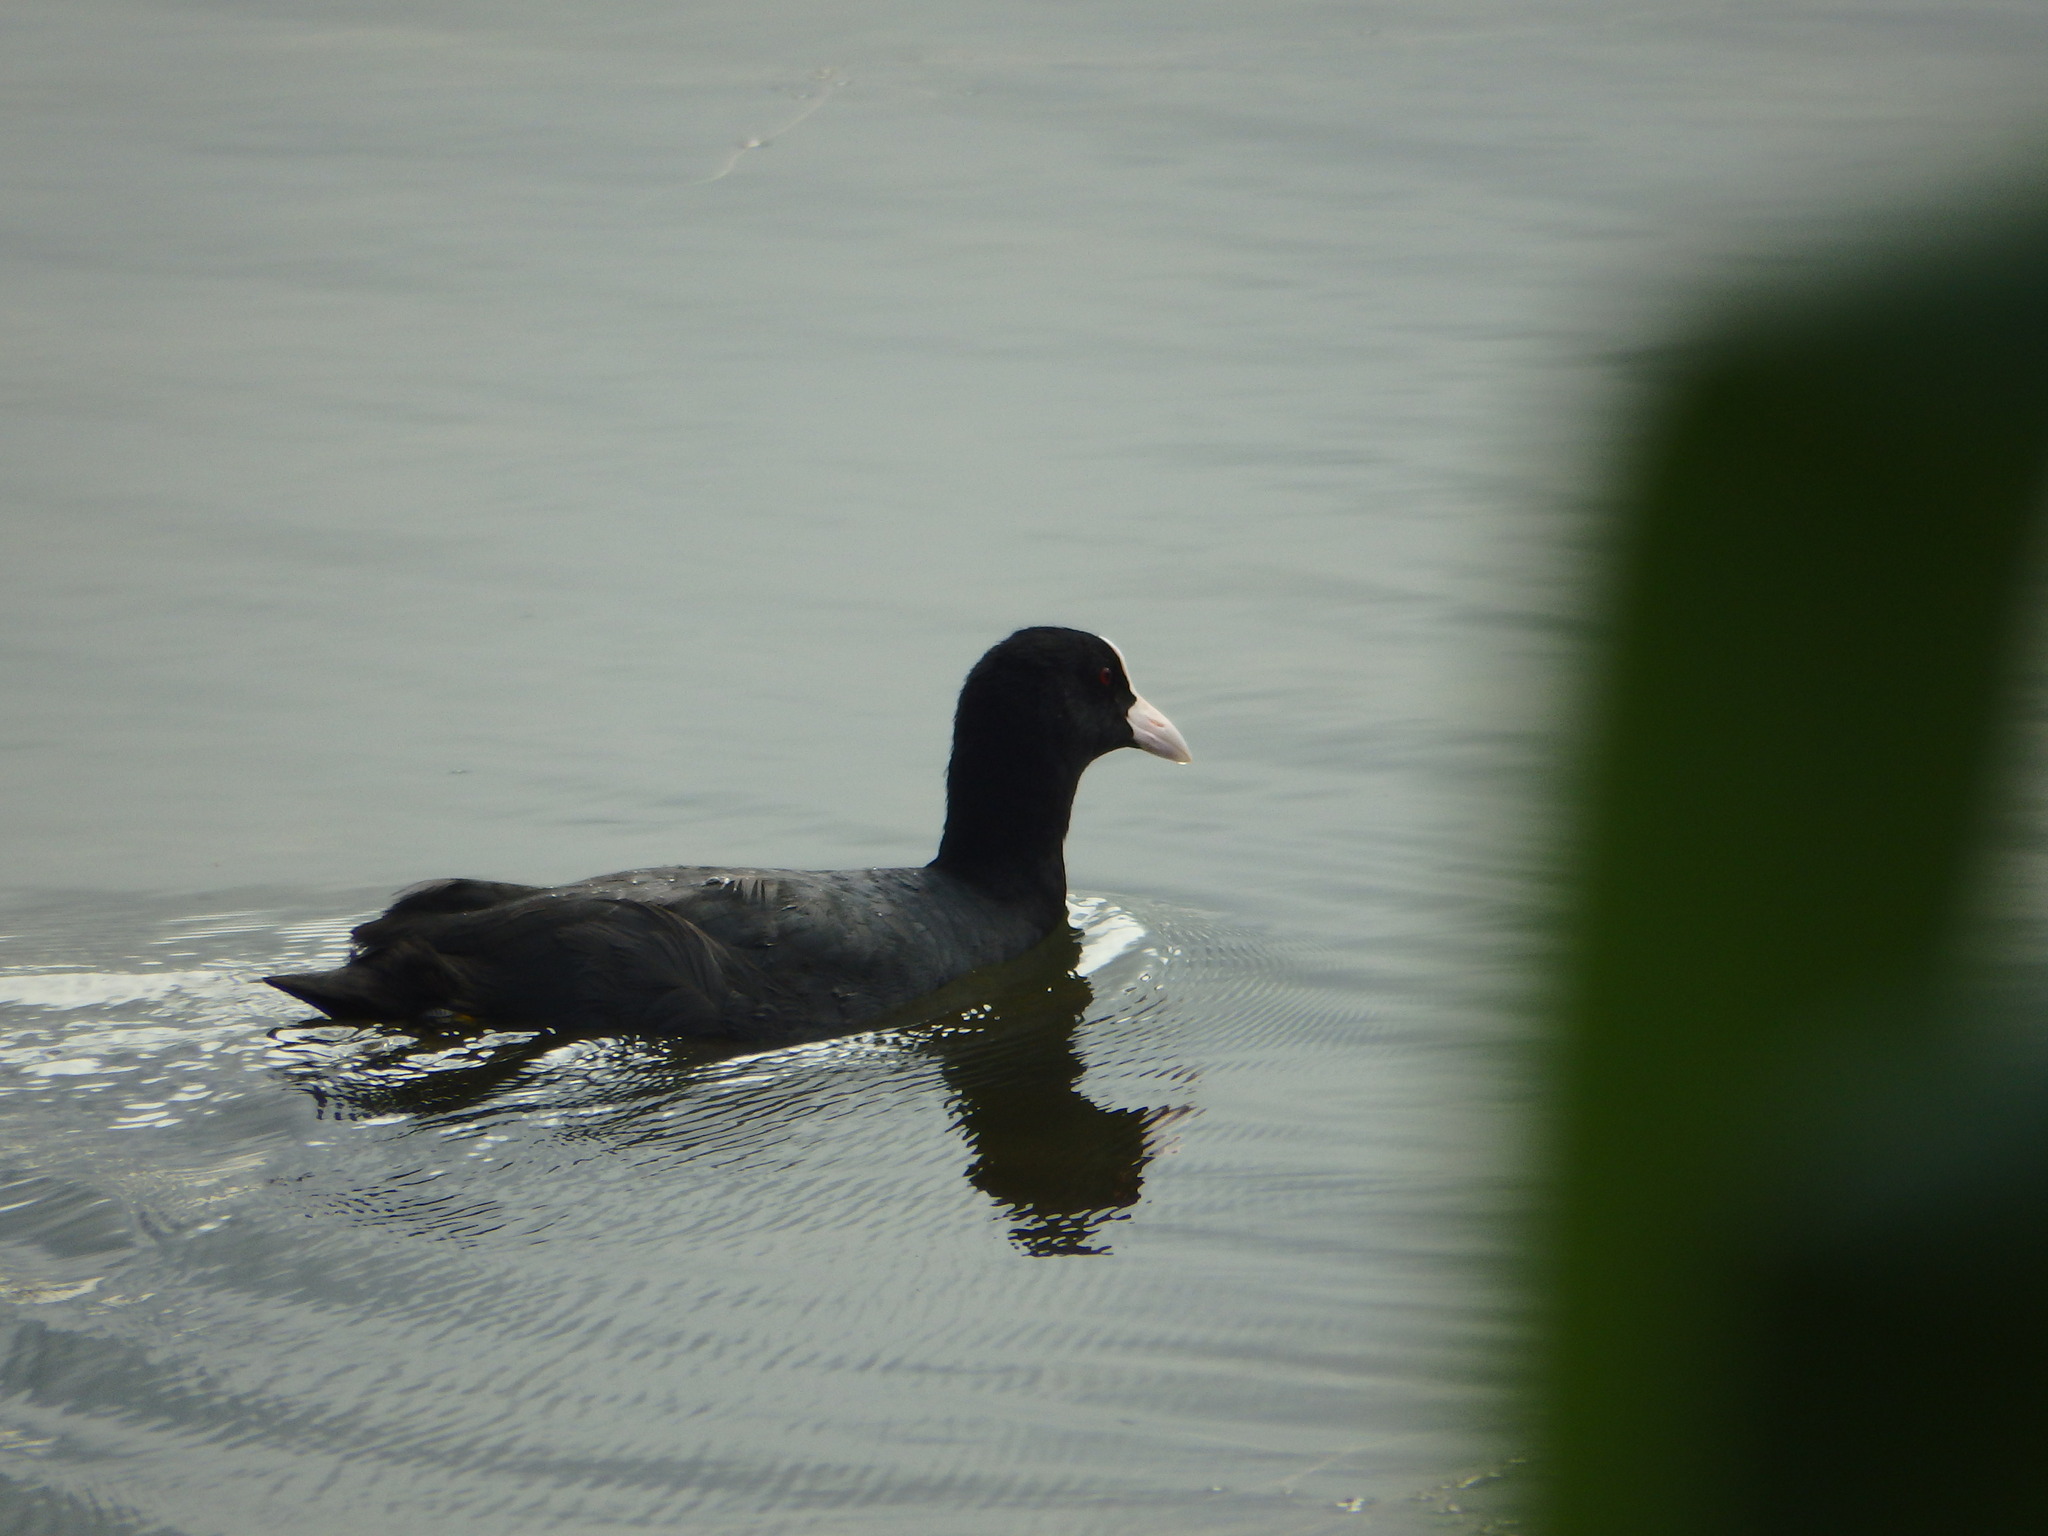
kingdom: Animalia
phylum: Chordata
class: Aves
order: Gruiformes
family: Rallidae
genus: Fulica
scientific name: Fulica atra
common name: Eurasian coot
